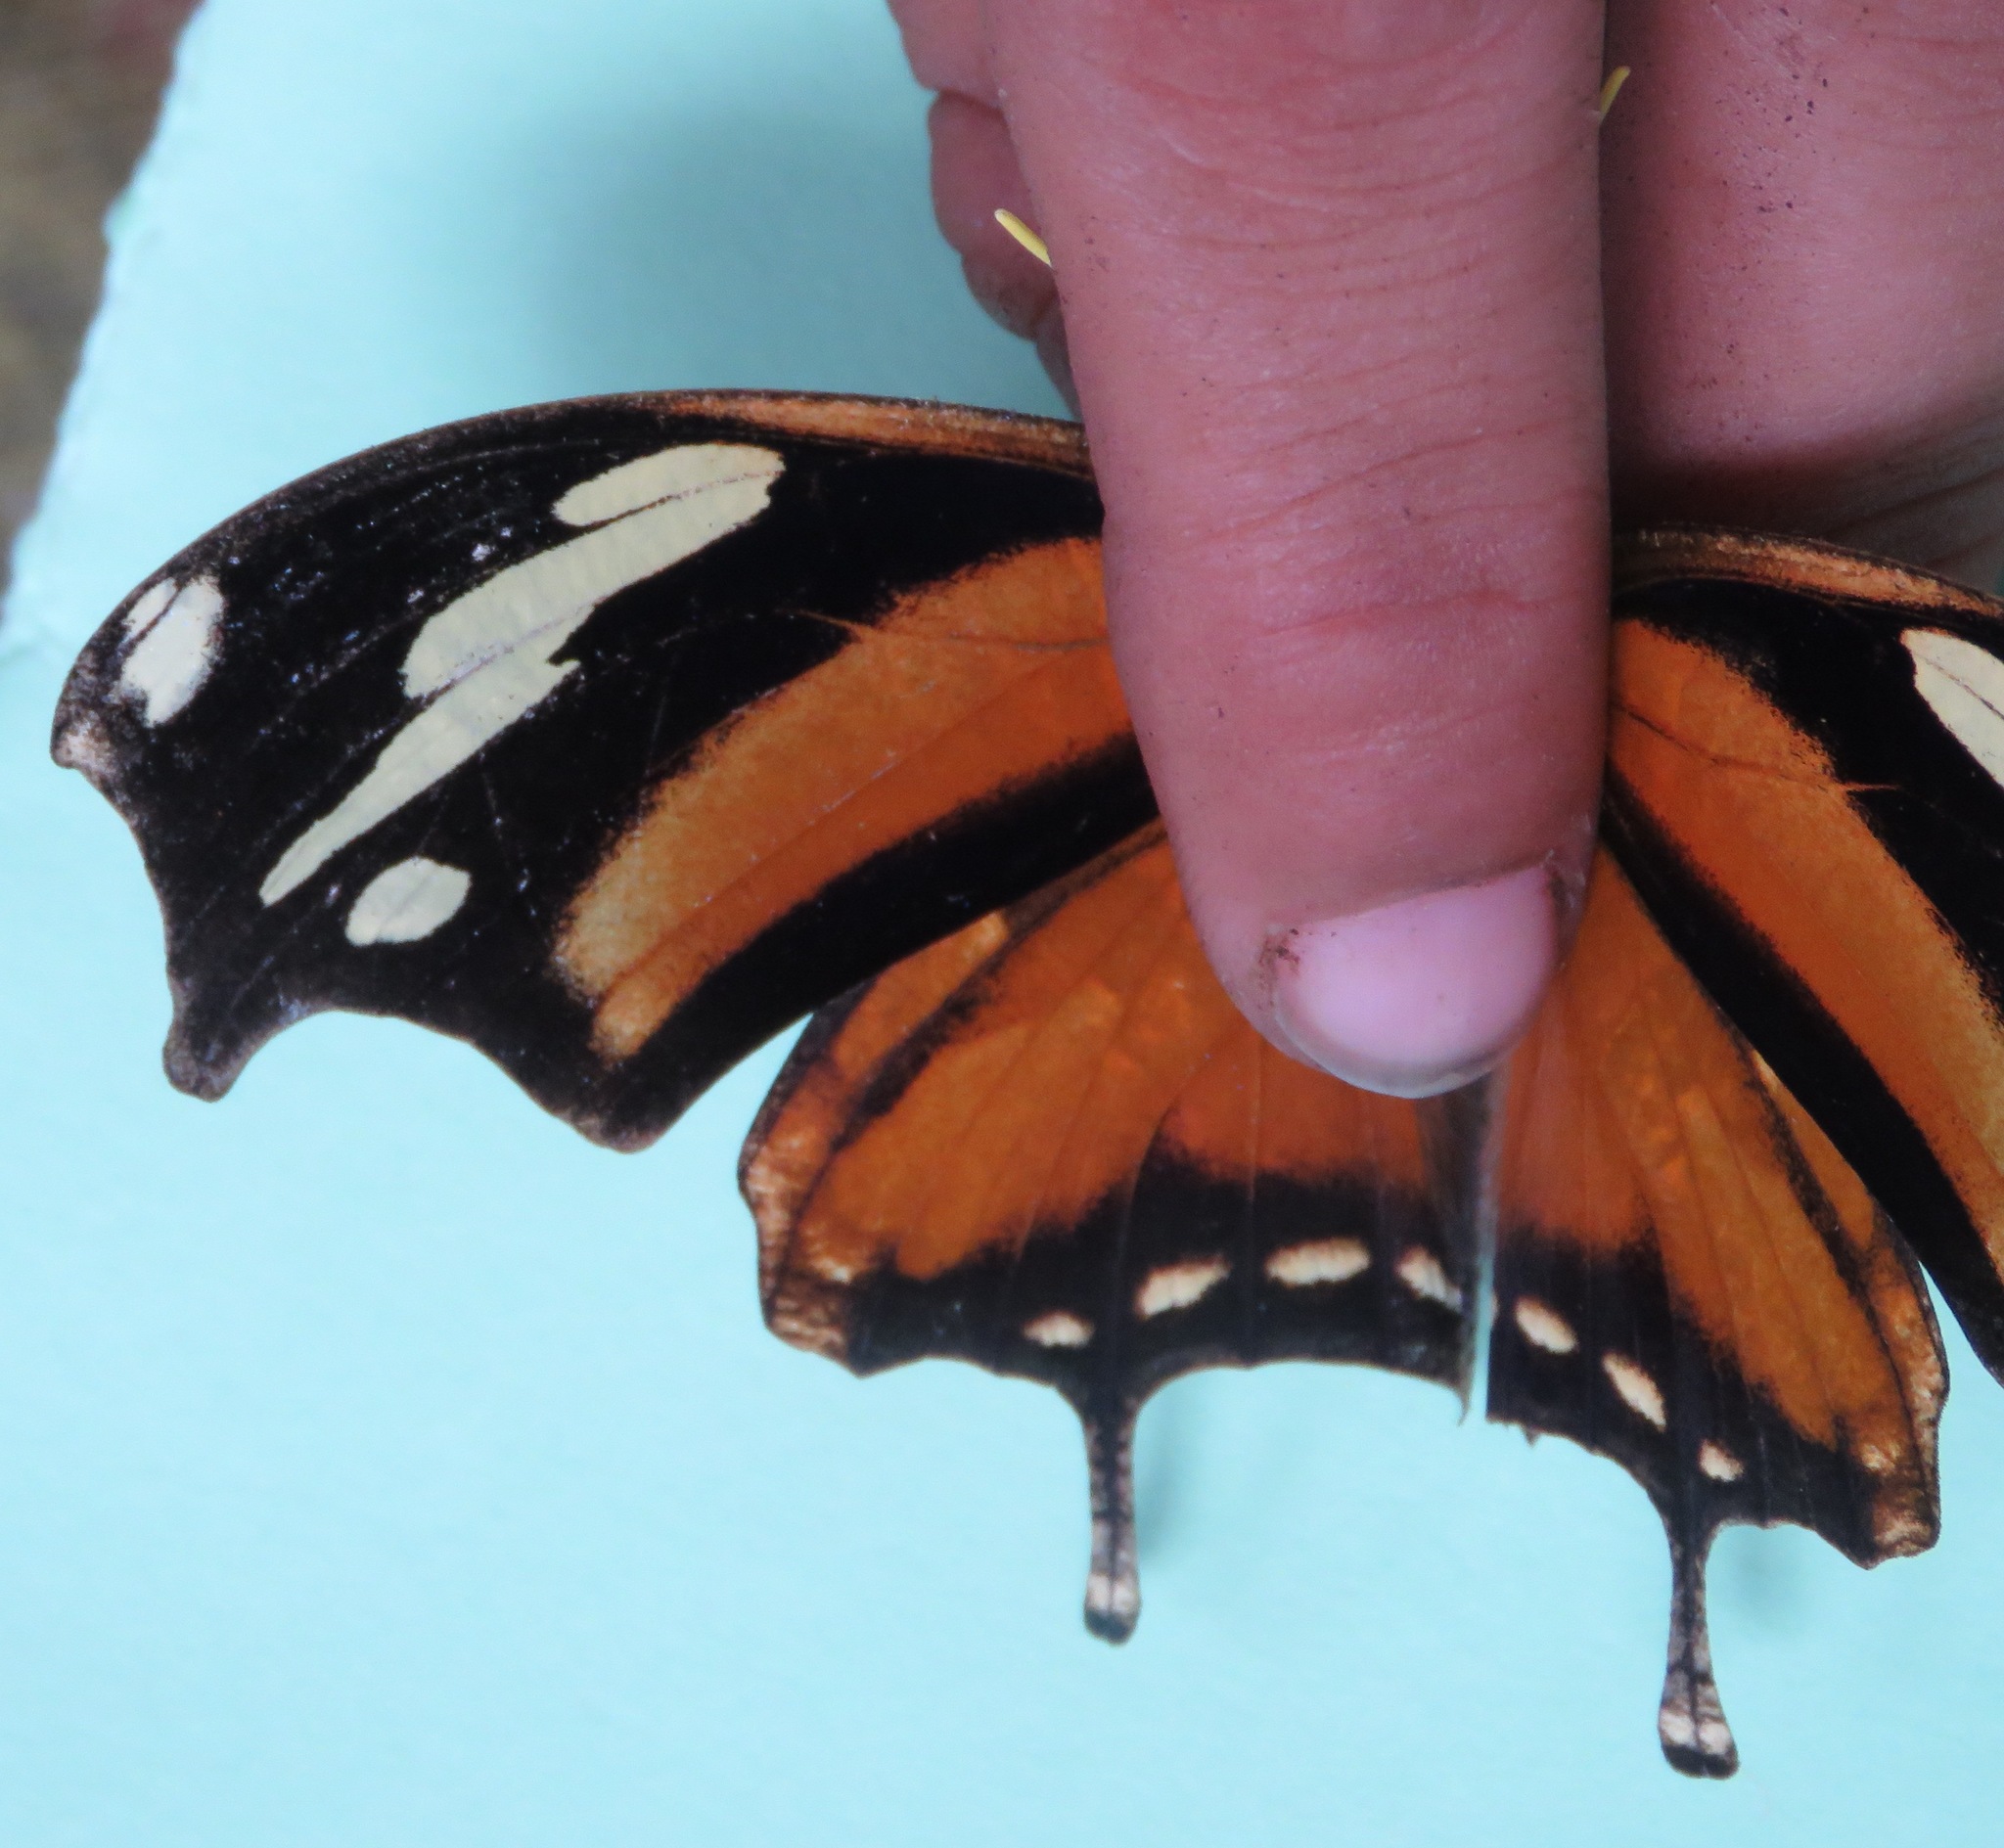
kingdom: Animalia
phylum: Arthropoda
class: Insecta
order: Lepidoptera
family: Nymphalidae
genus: Consul
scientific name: Consul fabius
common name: Tiger leafwing
